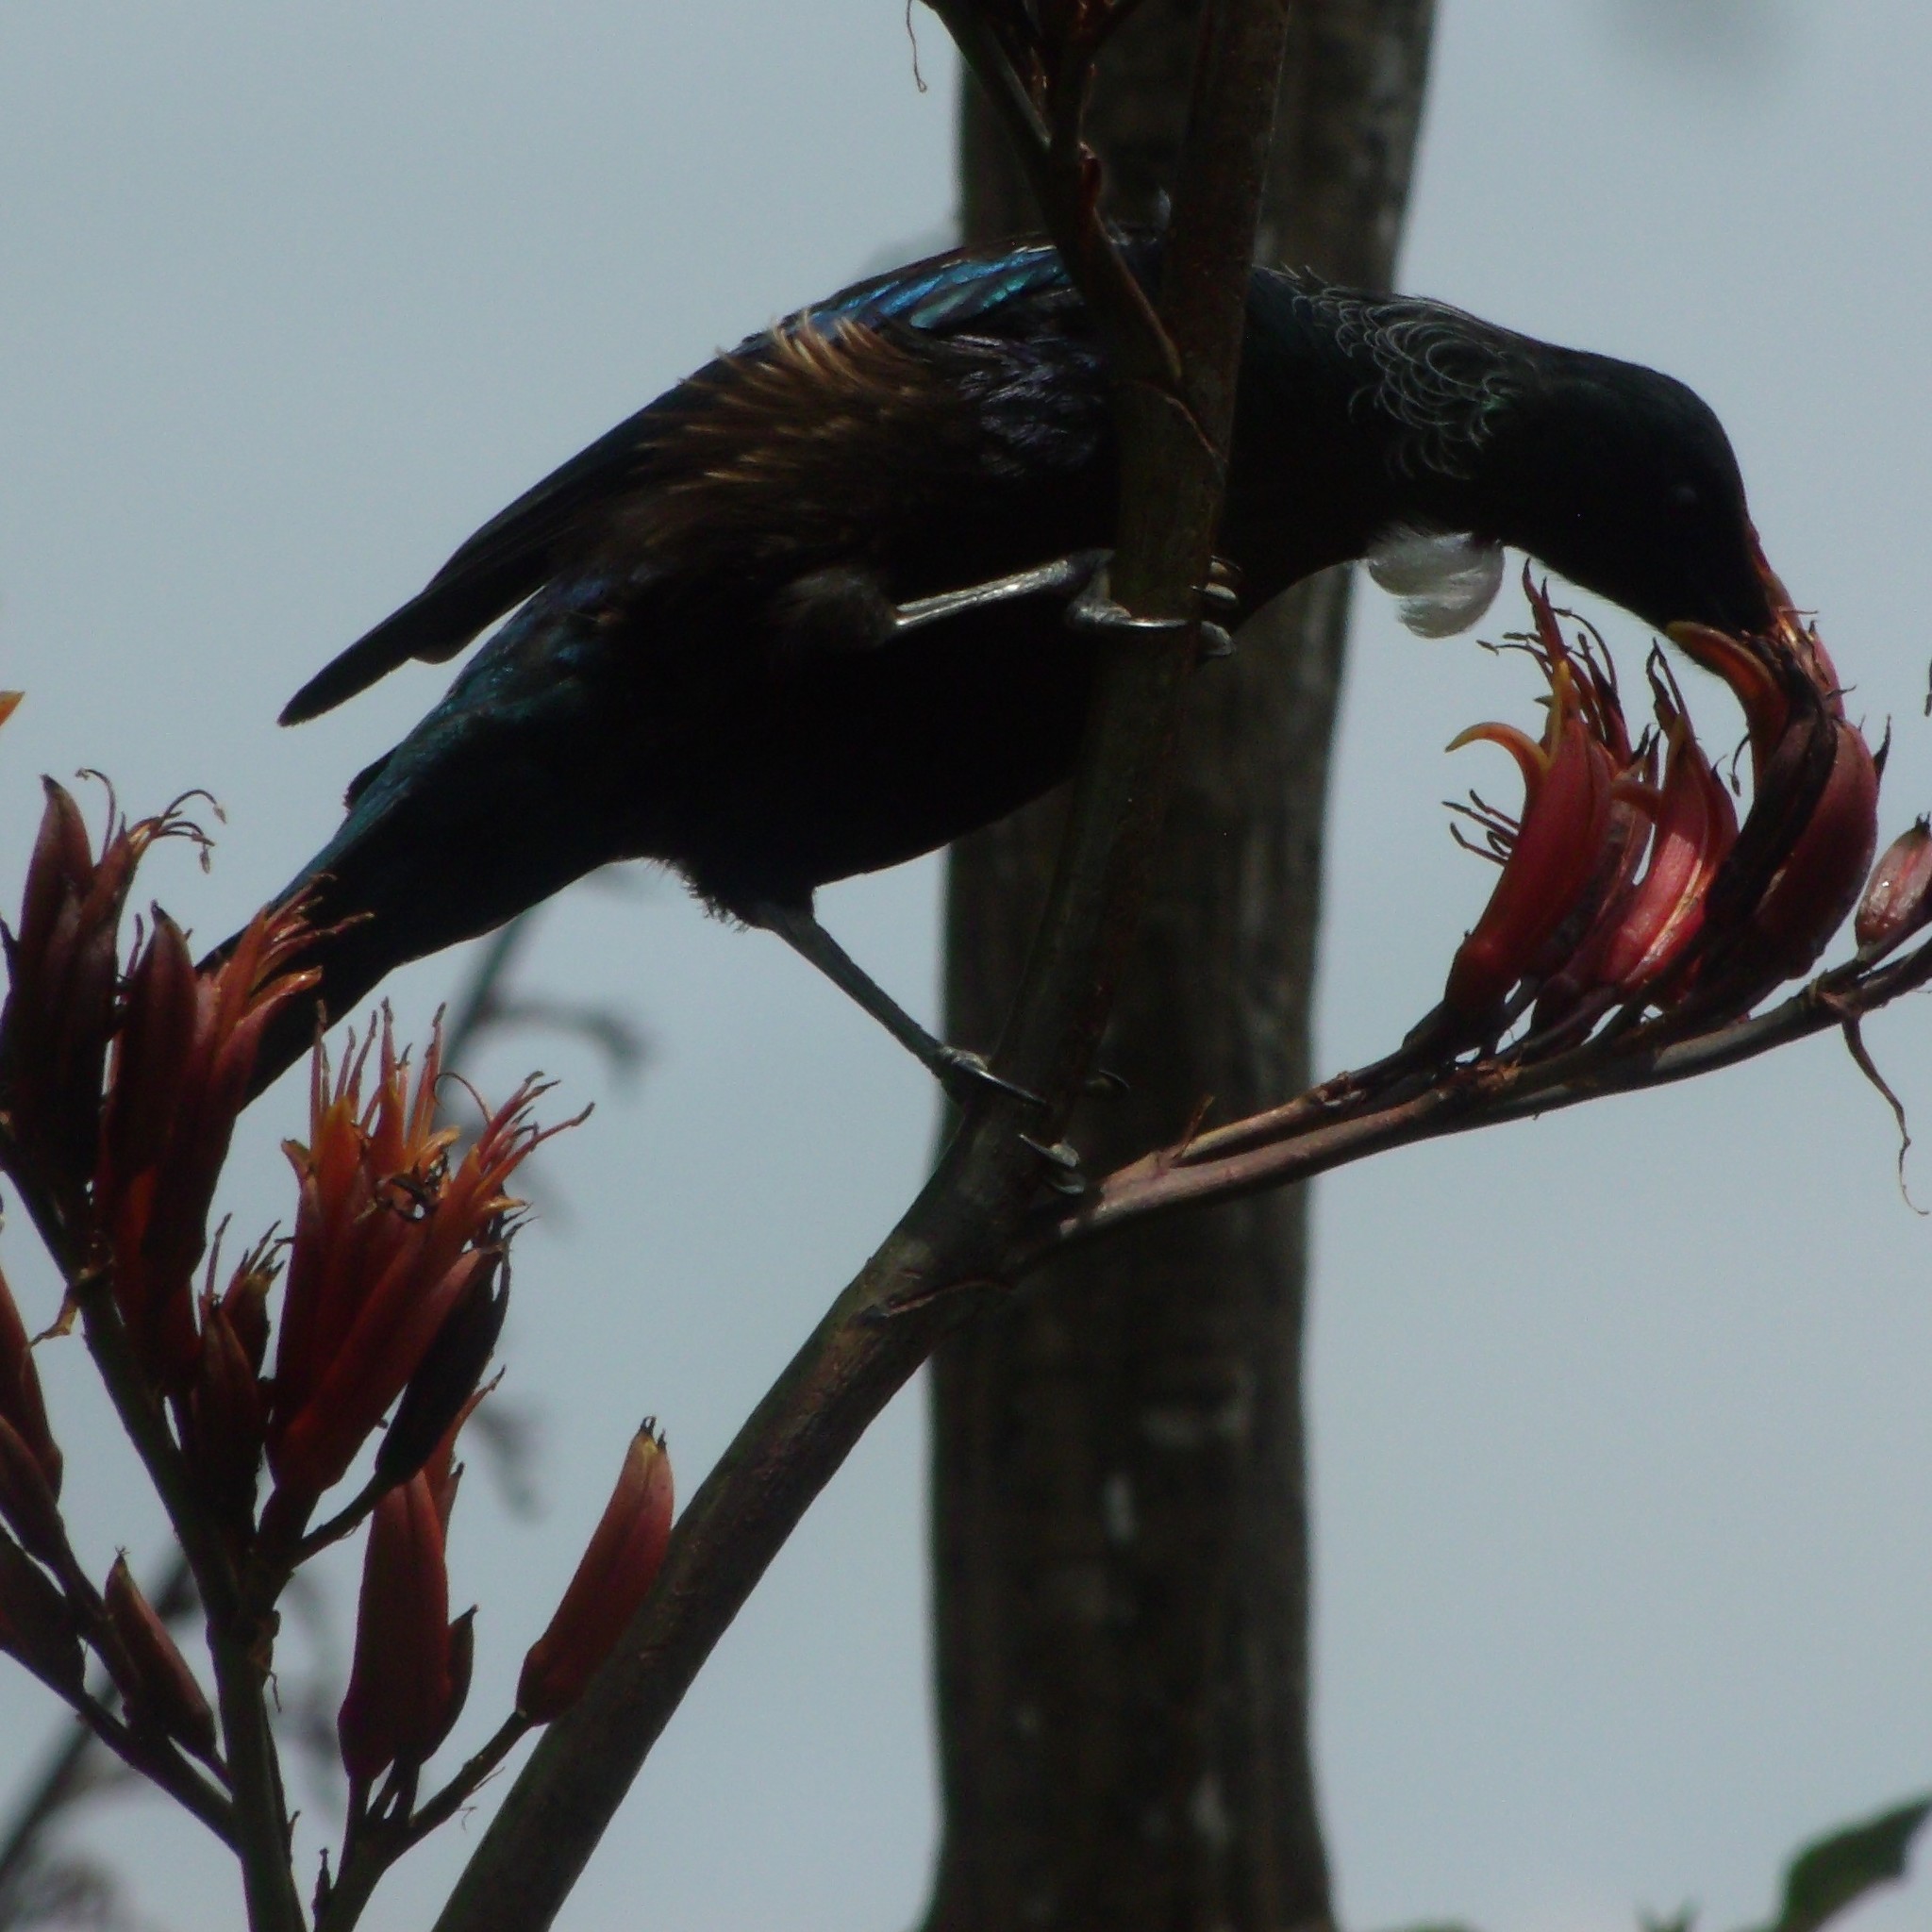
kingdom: Animalia
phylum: Chordata
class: Aves
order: Passeriformes
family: Meliphagidae
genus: Prosthemadera
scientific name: Prosthemadera novaeseelandiae
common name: Tui
